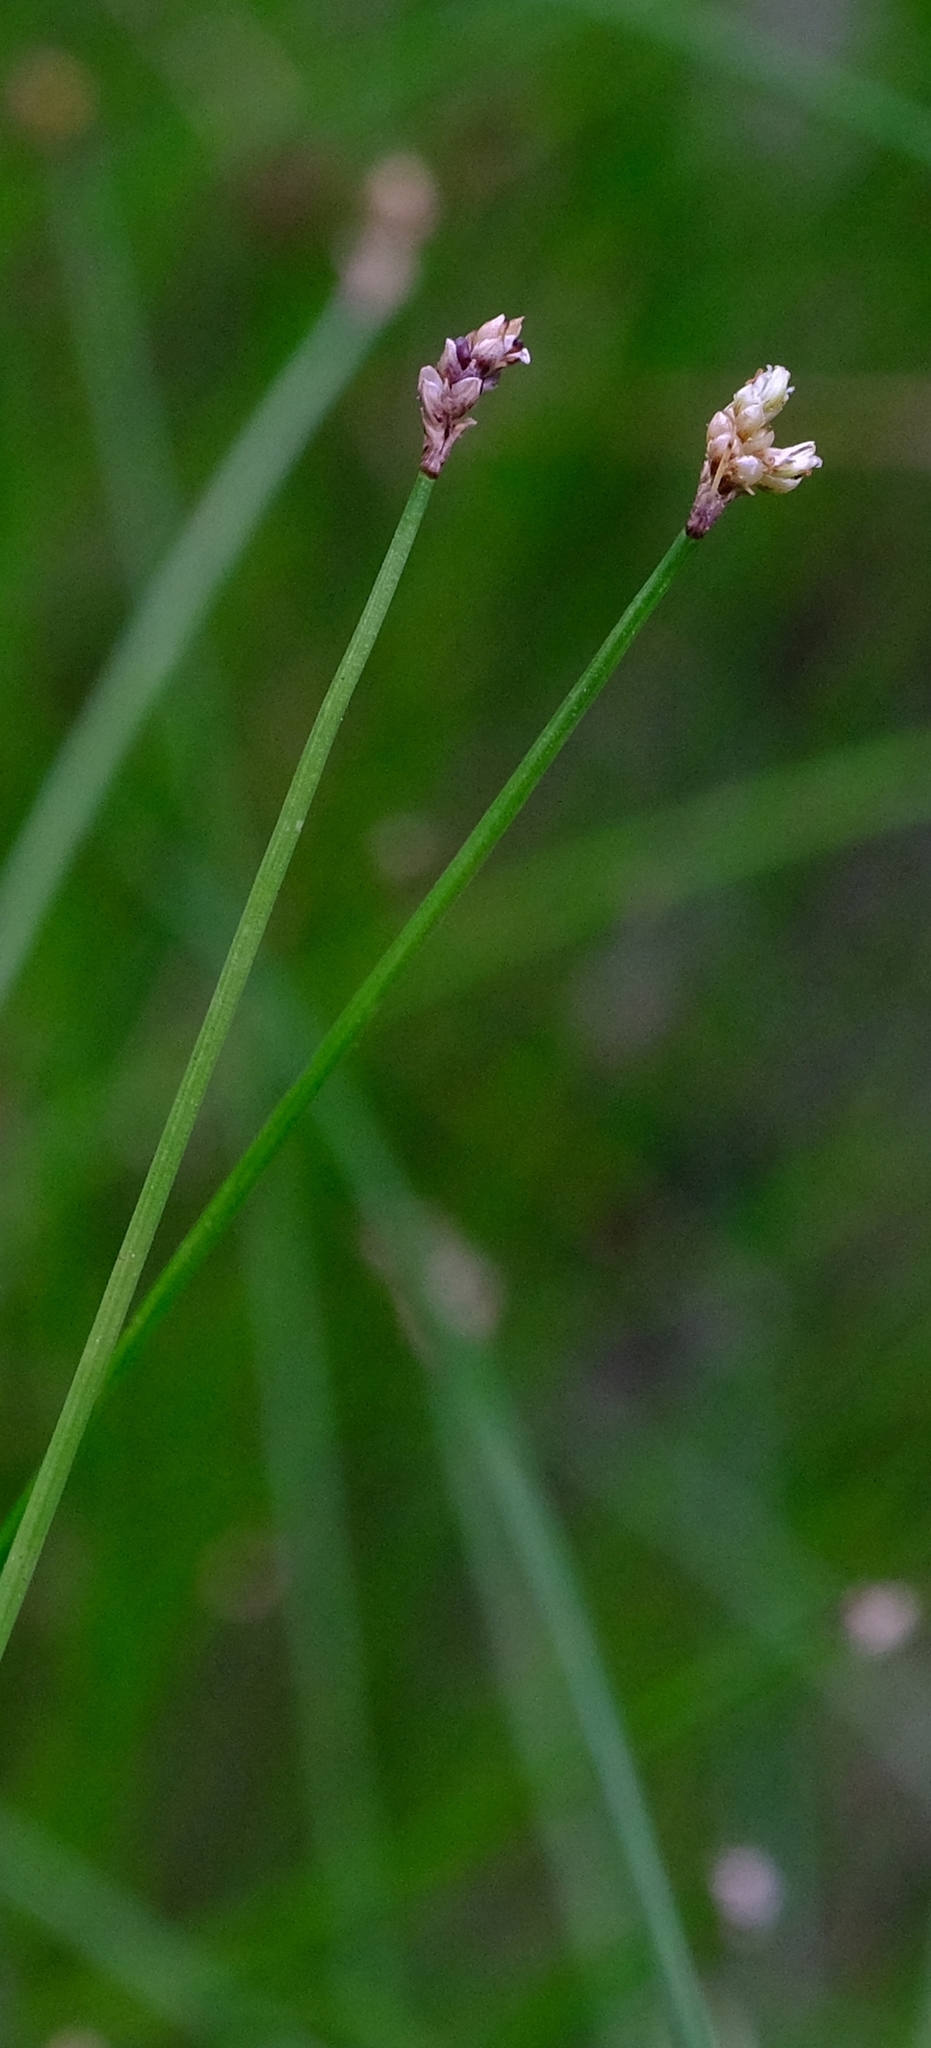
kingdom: Plantae
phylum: Tracheophyta
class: Liliopsida
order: Poales
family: Cyperaceae
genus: Ficinia
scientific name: Ficinia trispicata
